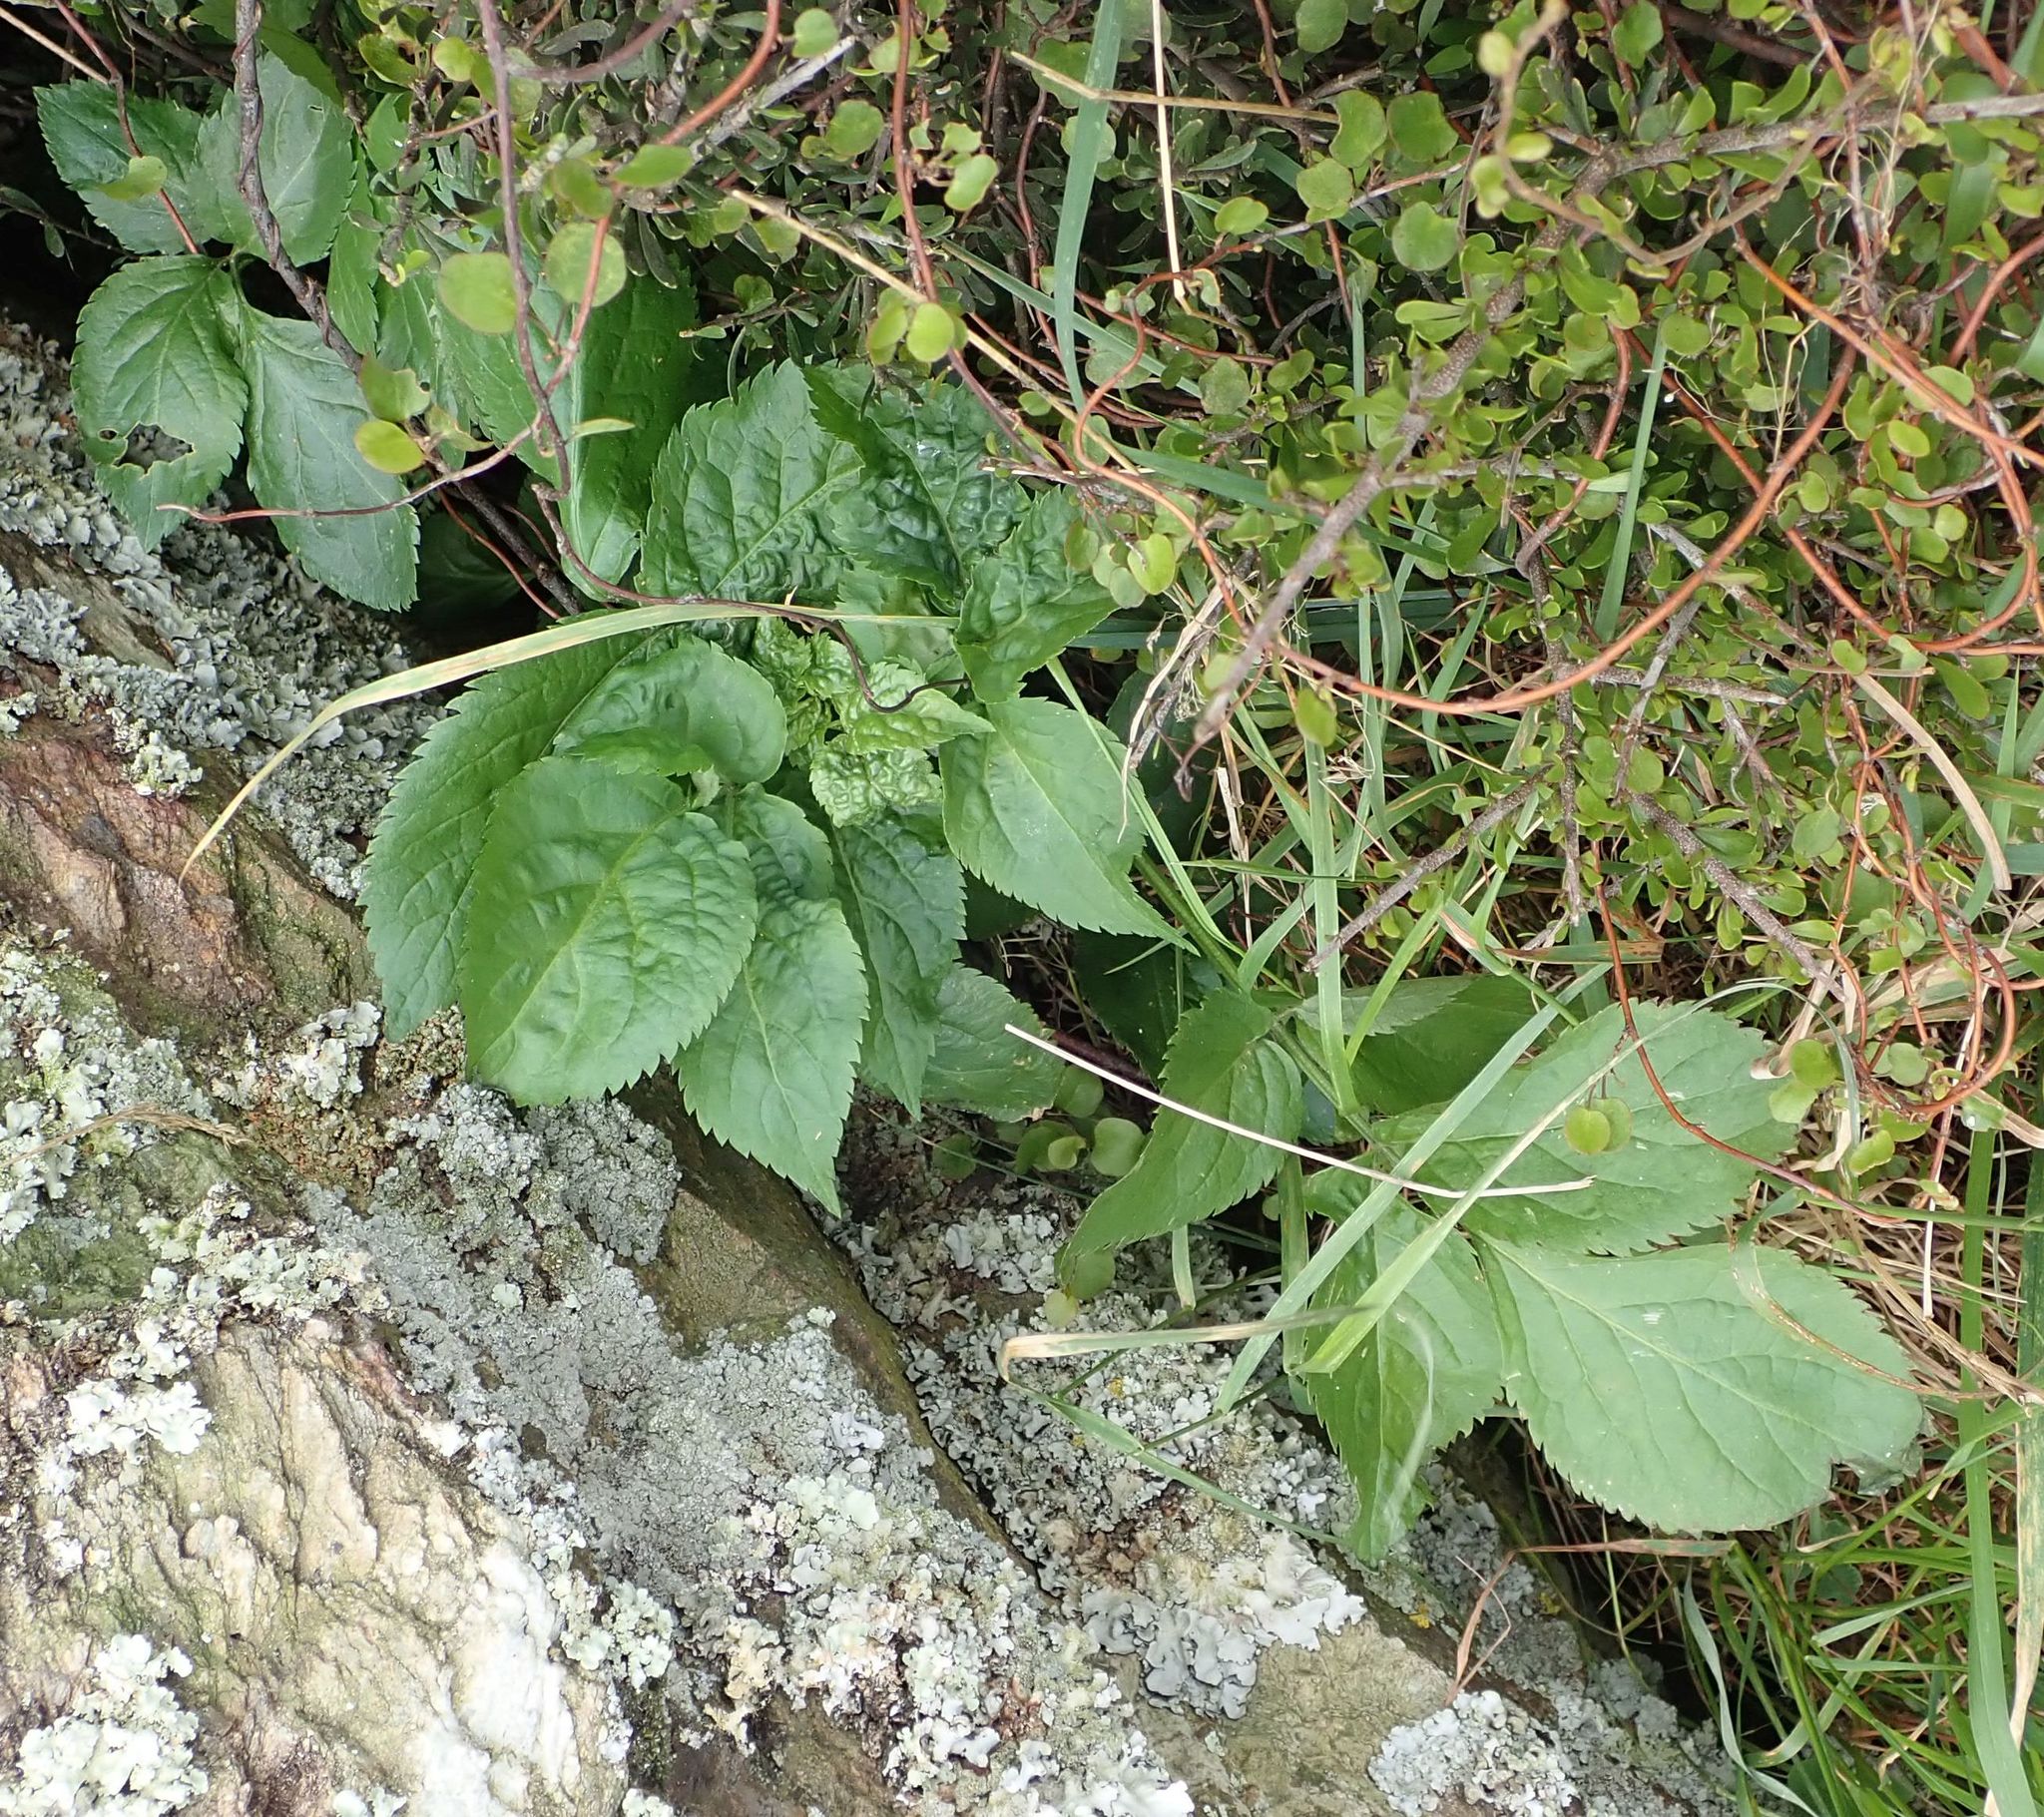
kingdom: Plantae
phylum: Tracheophyta
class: Magnoliopsida
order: Dipsacales
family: Viburnaceae
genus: Sambucus
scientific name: Sambucus nigra
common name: Elder
